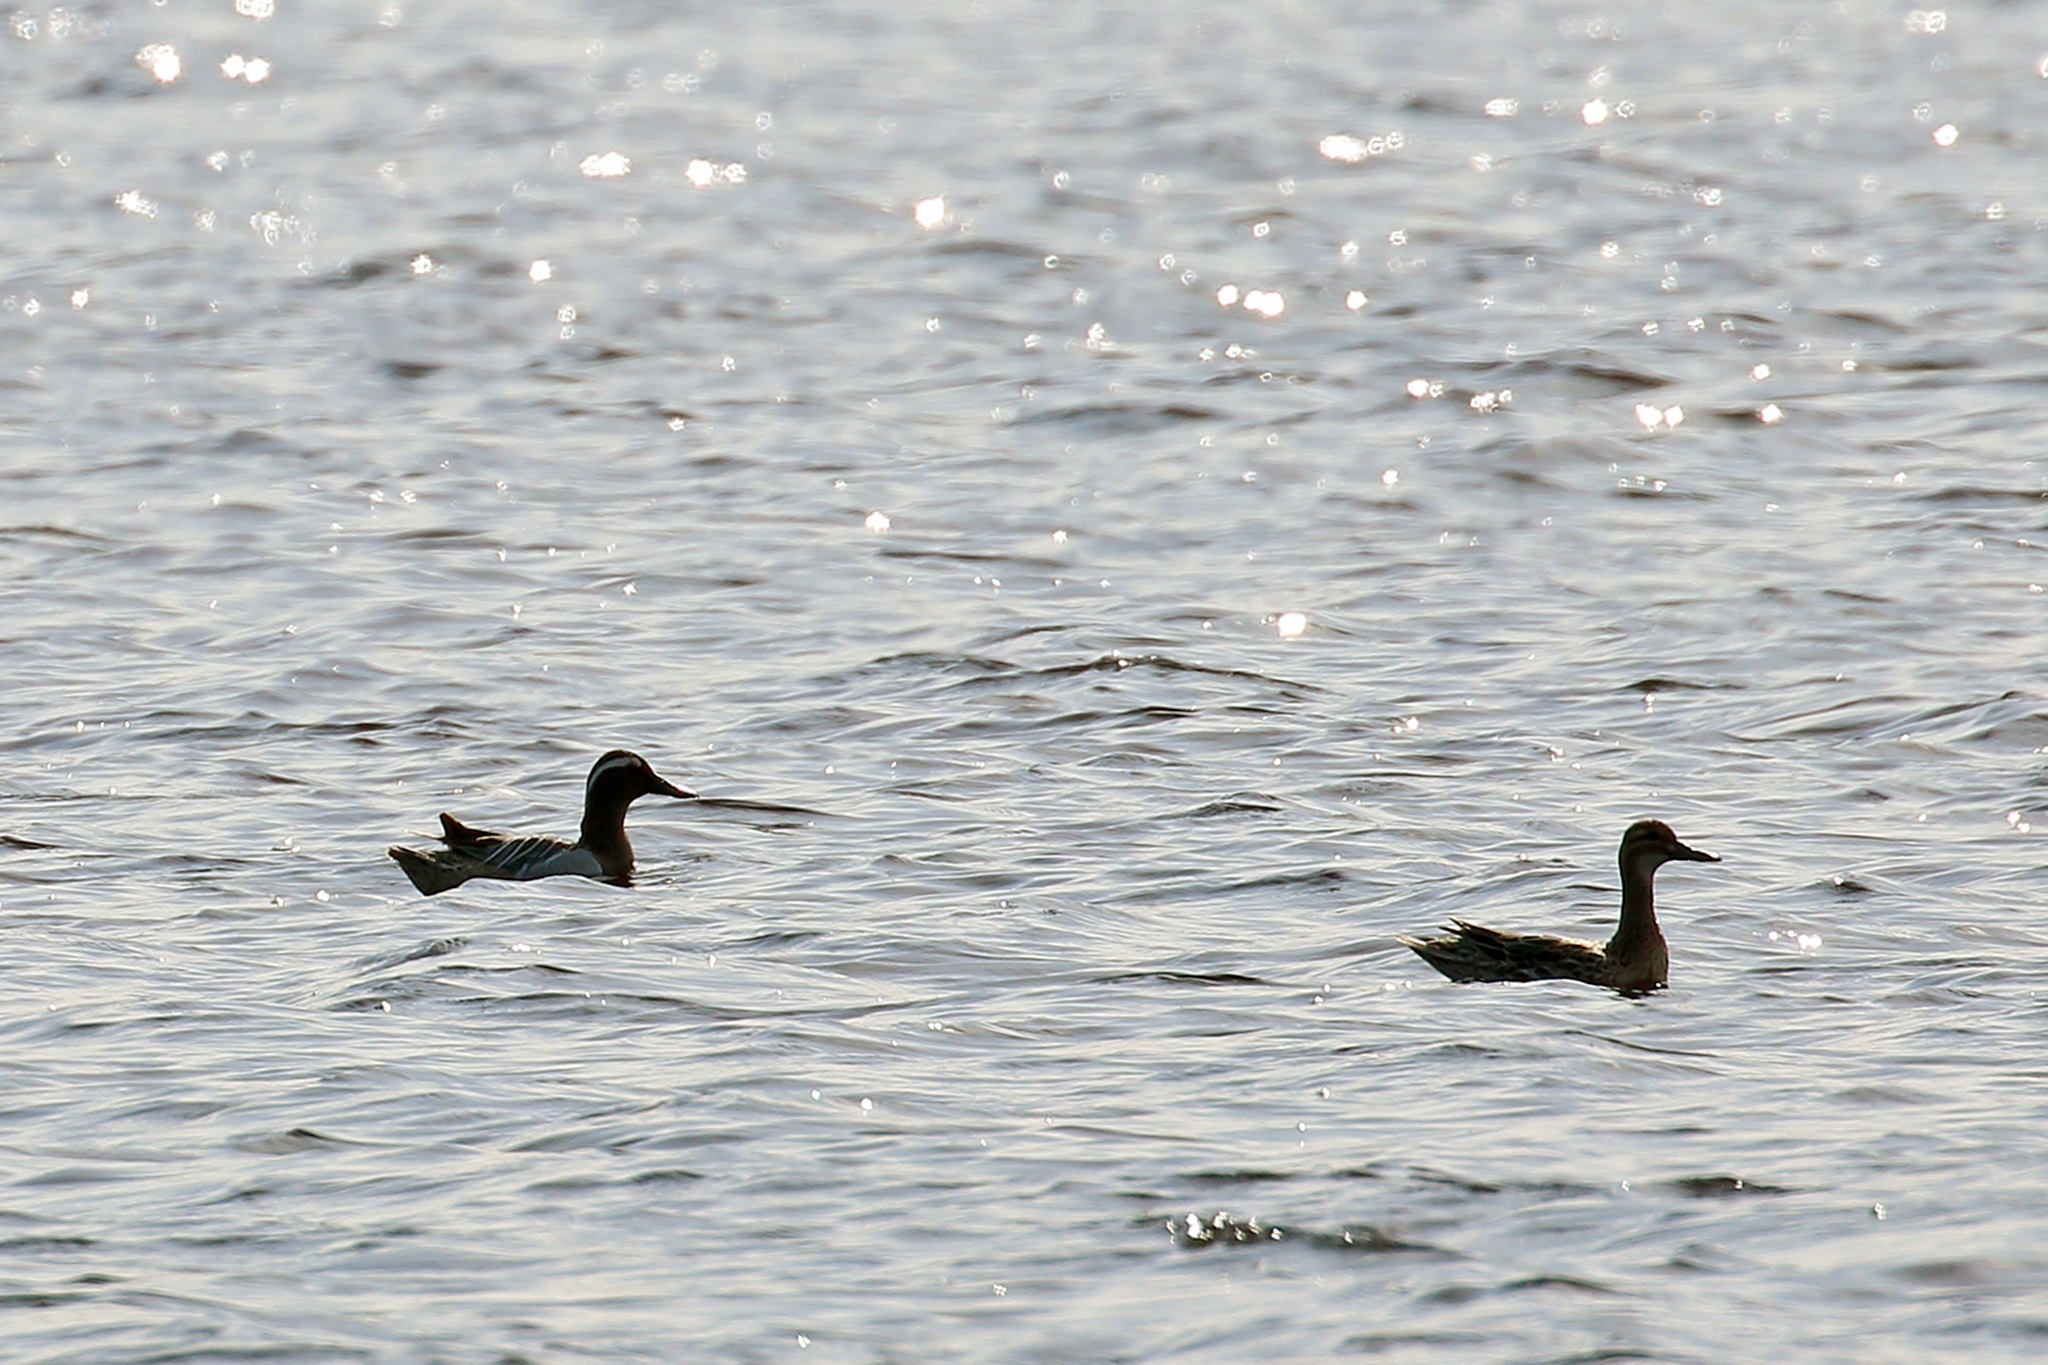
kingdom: Animalia
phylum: Chordata
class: Aves
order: Anseriformes
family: Anatidae
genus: Spatula
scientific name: Spatula querquedula
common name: Garganey
